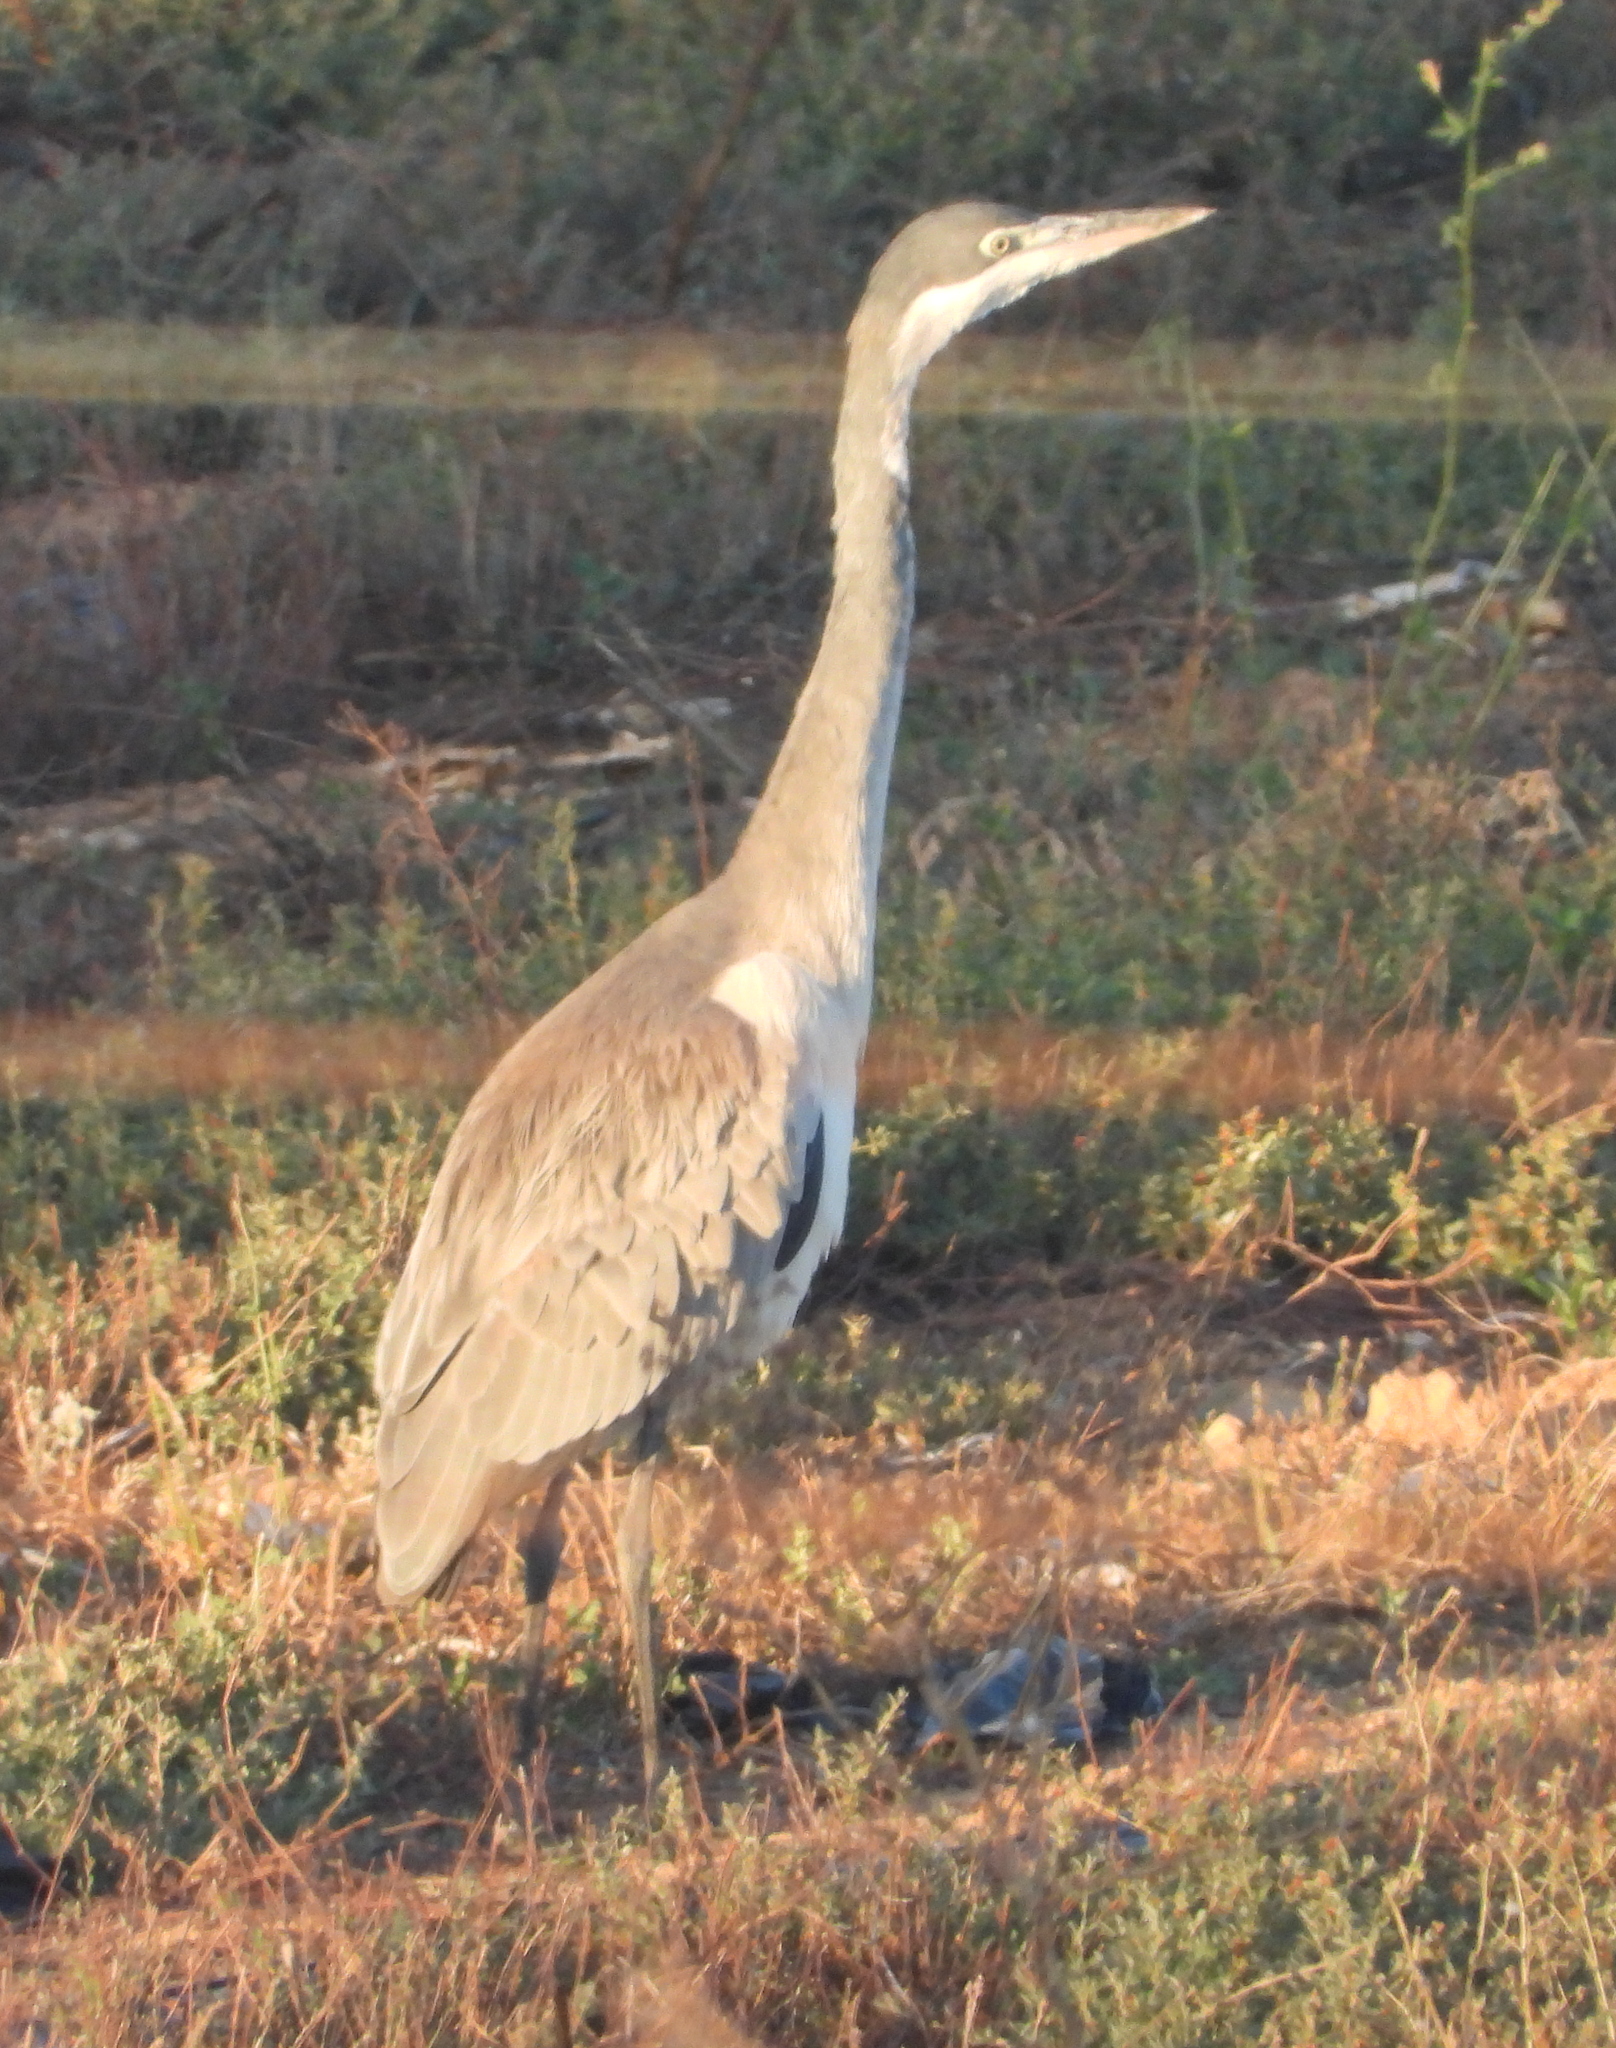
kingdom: Animalia
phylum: Chordata
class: Aves
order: Pelecaniformes
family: Ardeidae
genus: Ardea
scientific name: Ardea melanocephala
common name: Black-headed heron
